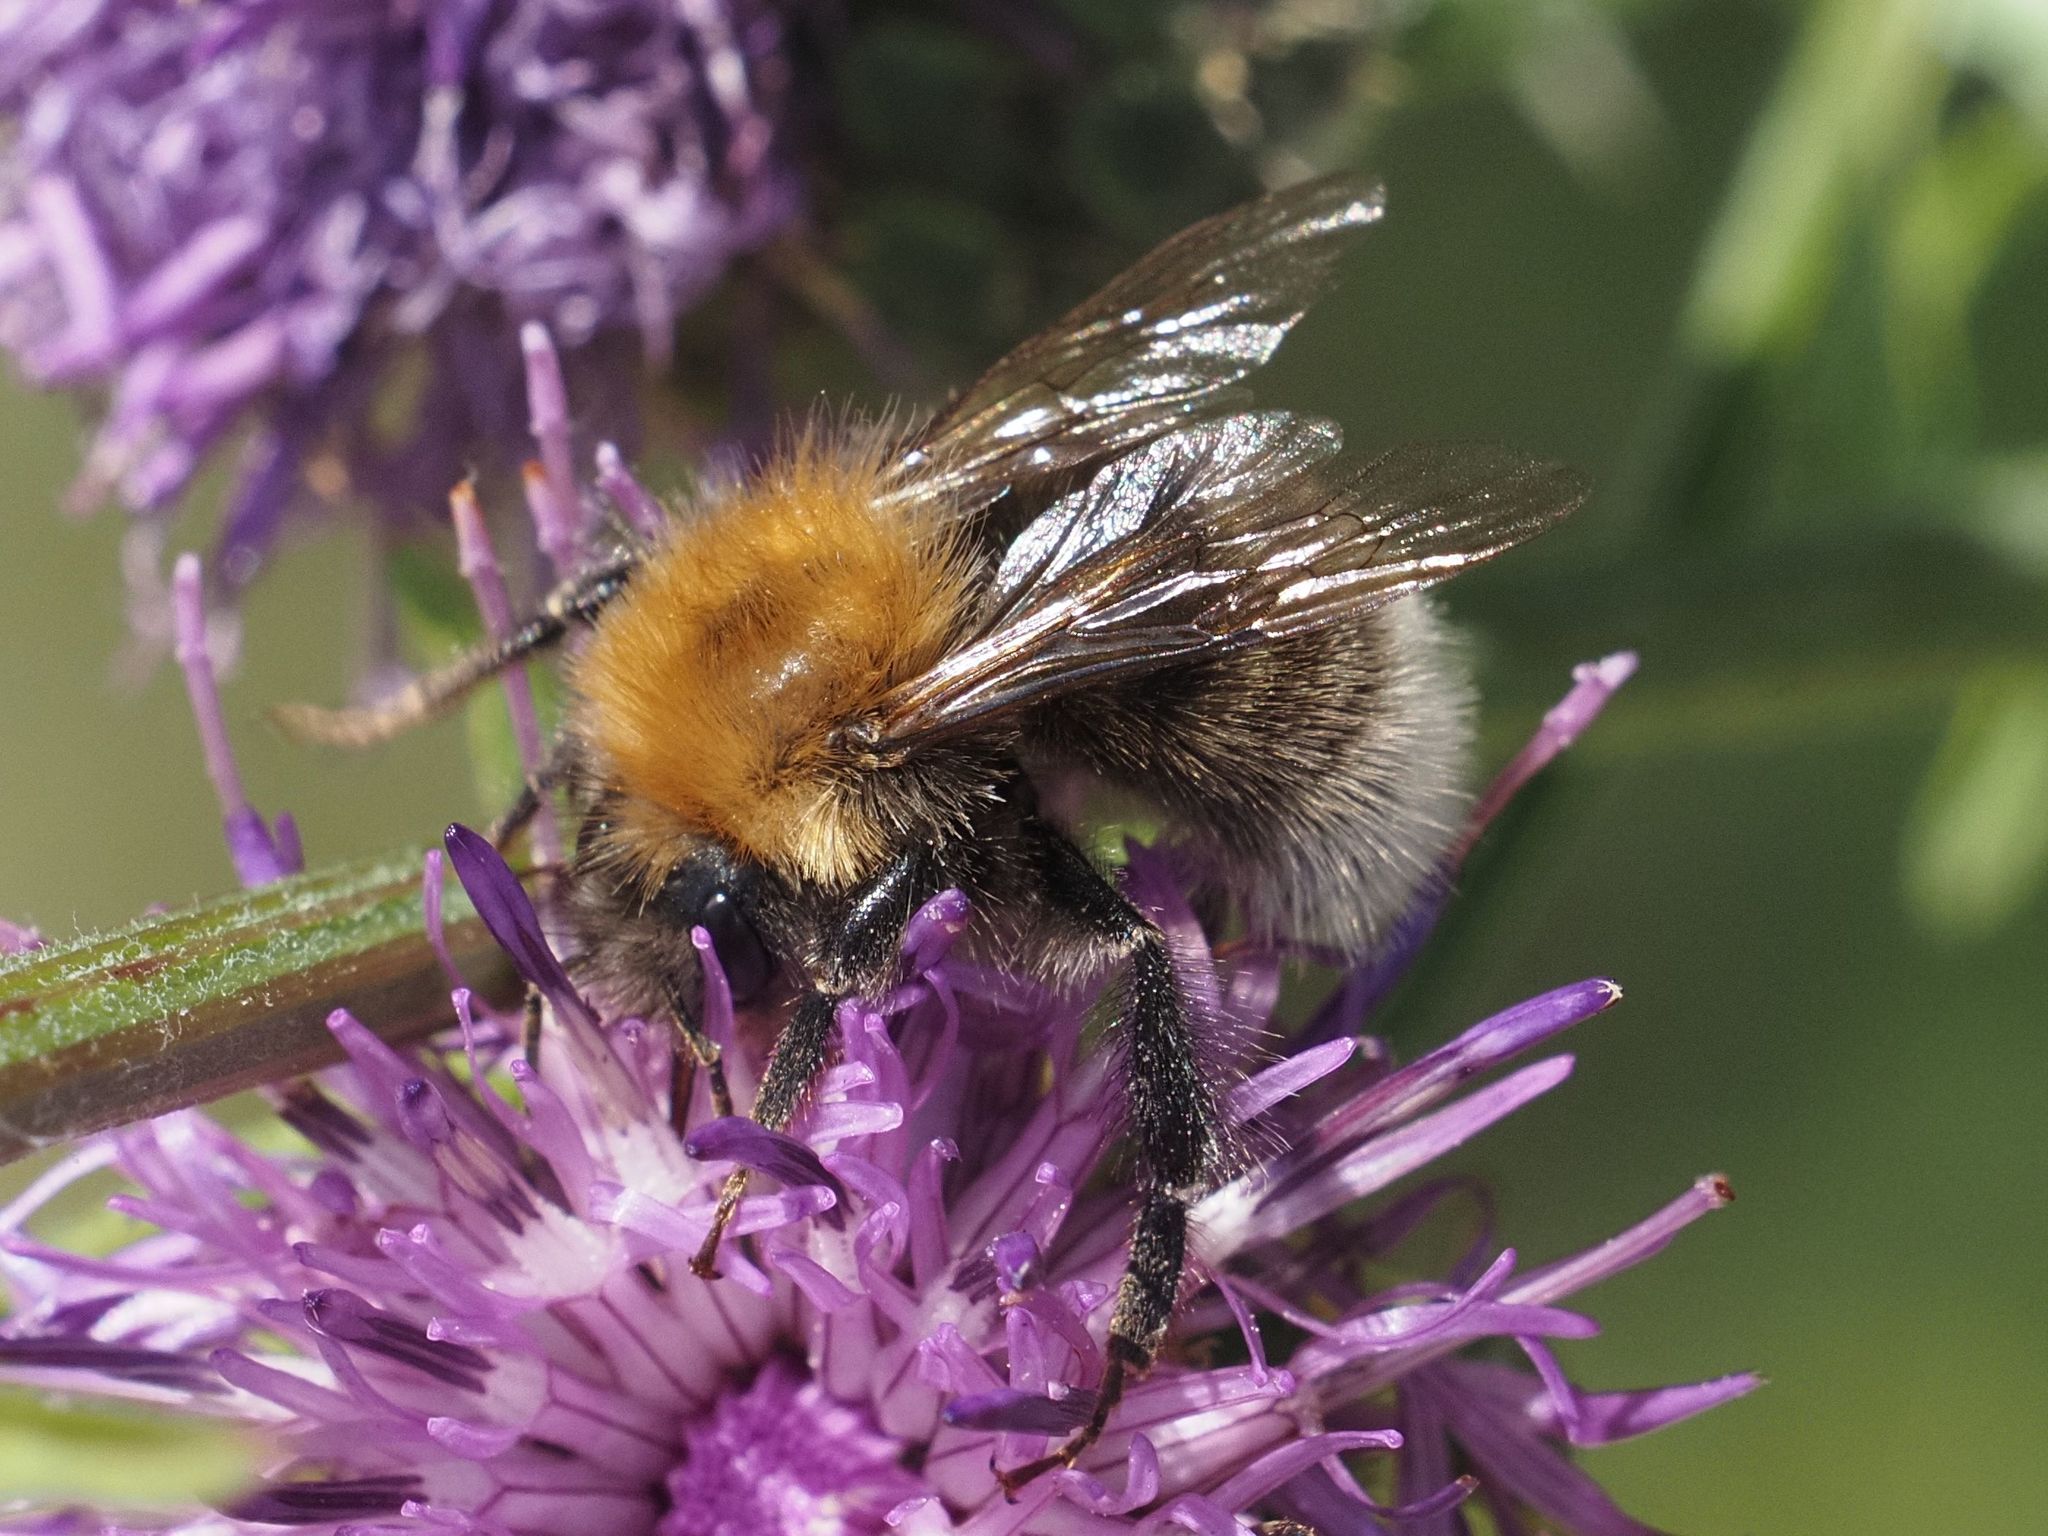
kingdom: Animalia
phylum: Arthropoda
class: Insecta
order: Hymenoptera
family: Apidae
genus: Bombus
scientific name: Bombus hypnorum
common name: New garden bumblebee
